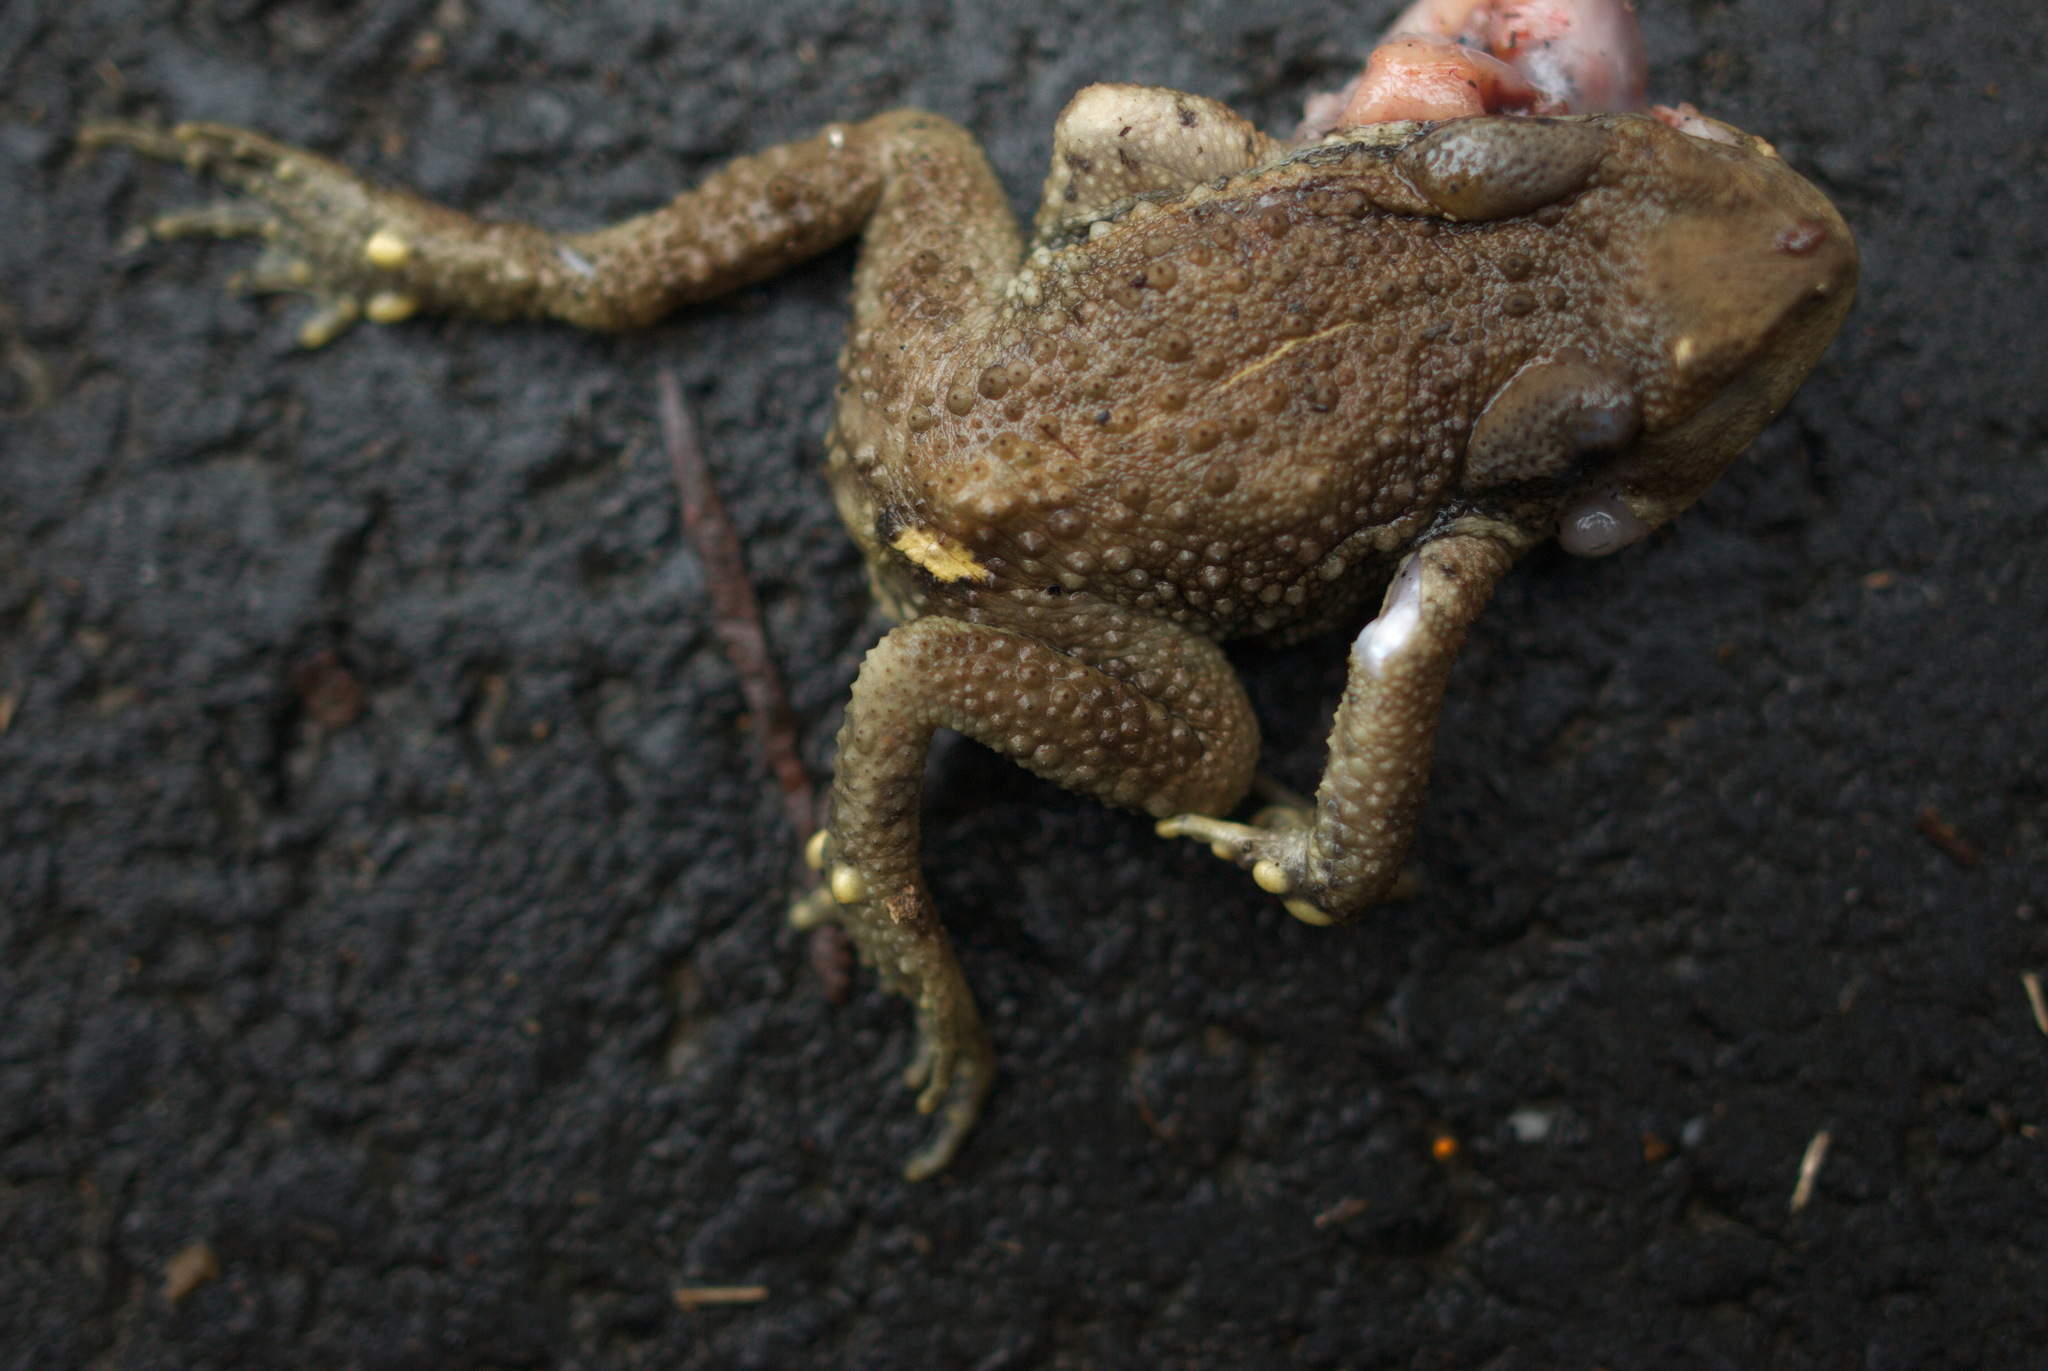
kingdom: Animalia
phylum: Chordata
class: Amphibia
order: Anura
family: Bufonidae
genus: Bufo
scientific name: Bufo bankorensis
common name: Bankor toad
